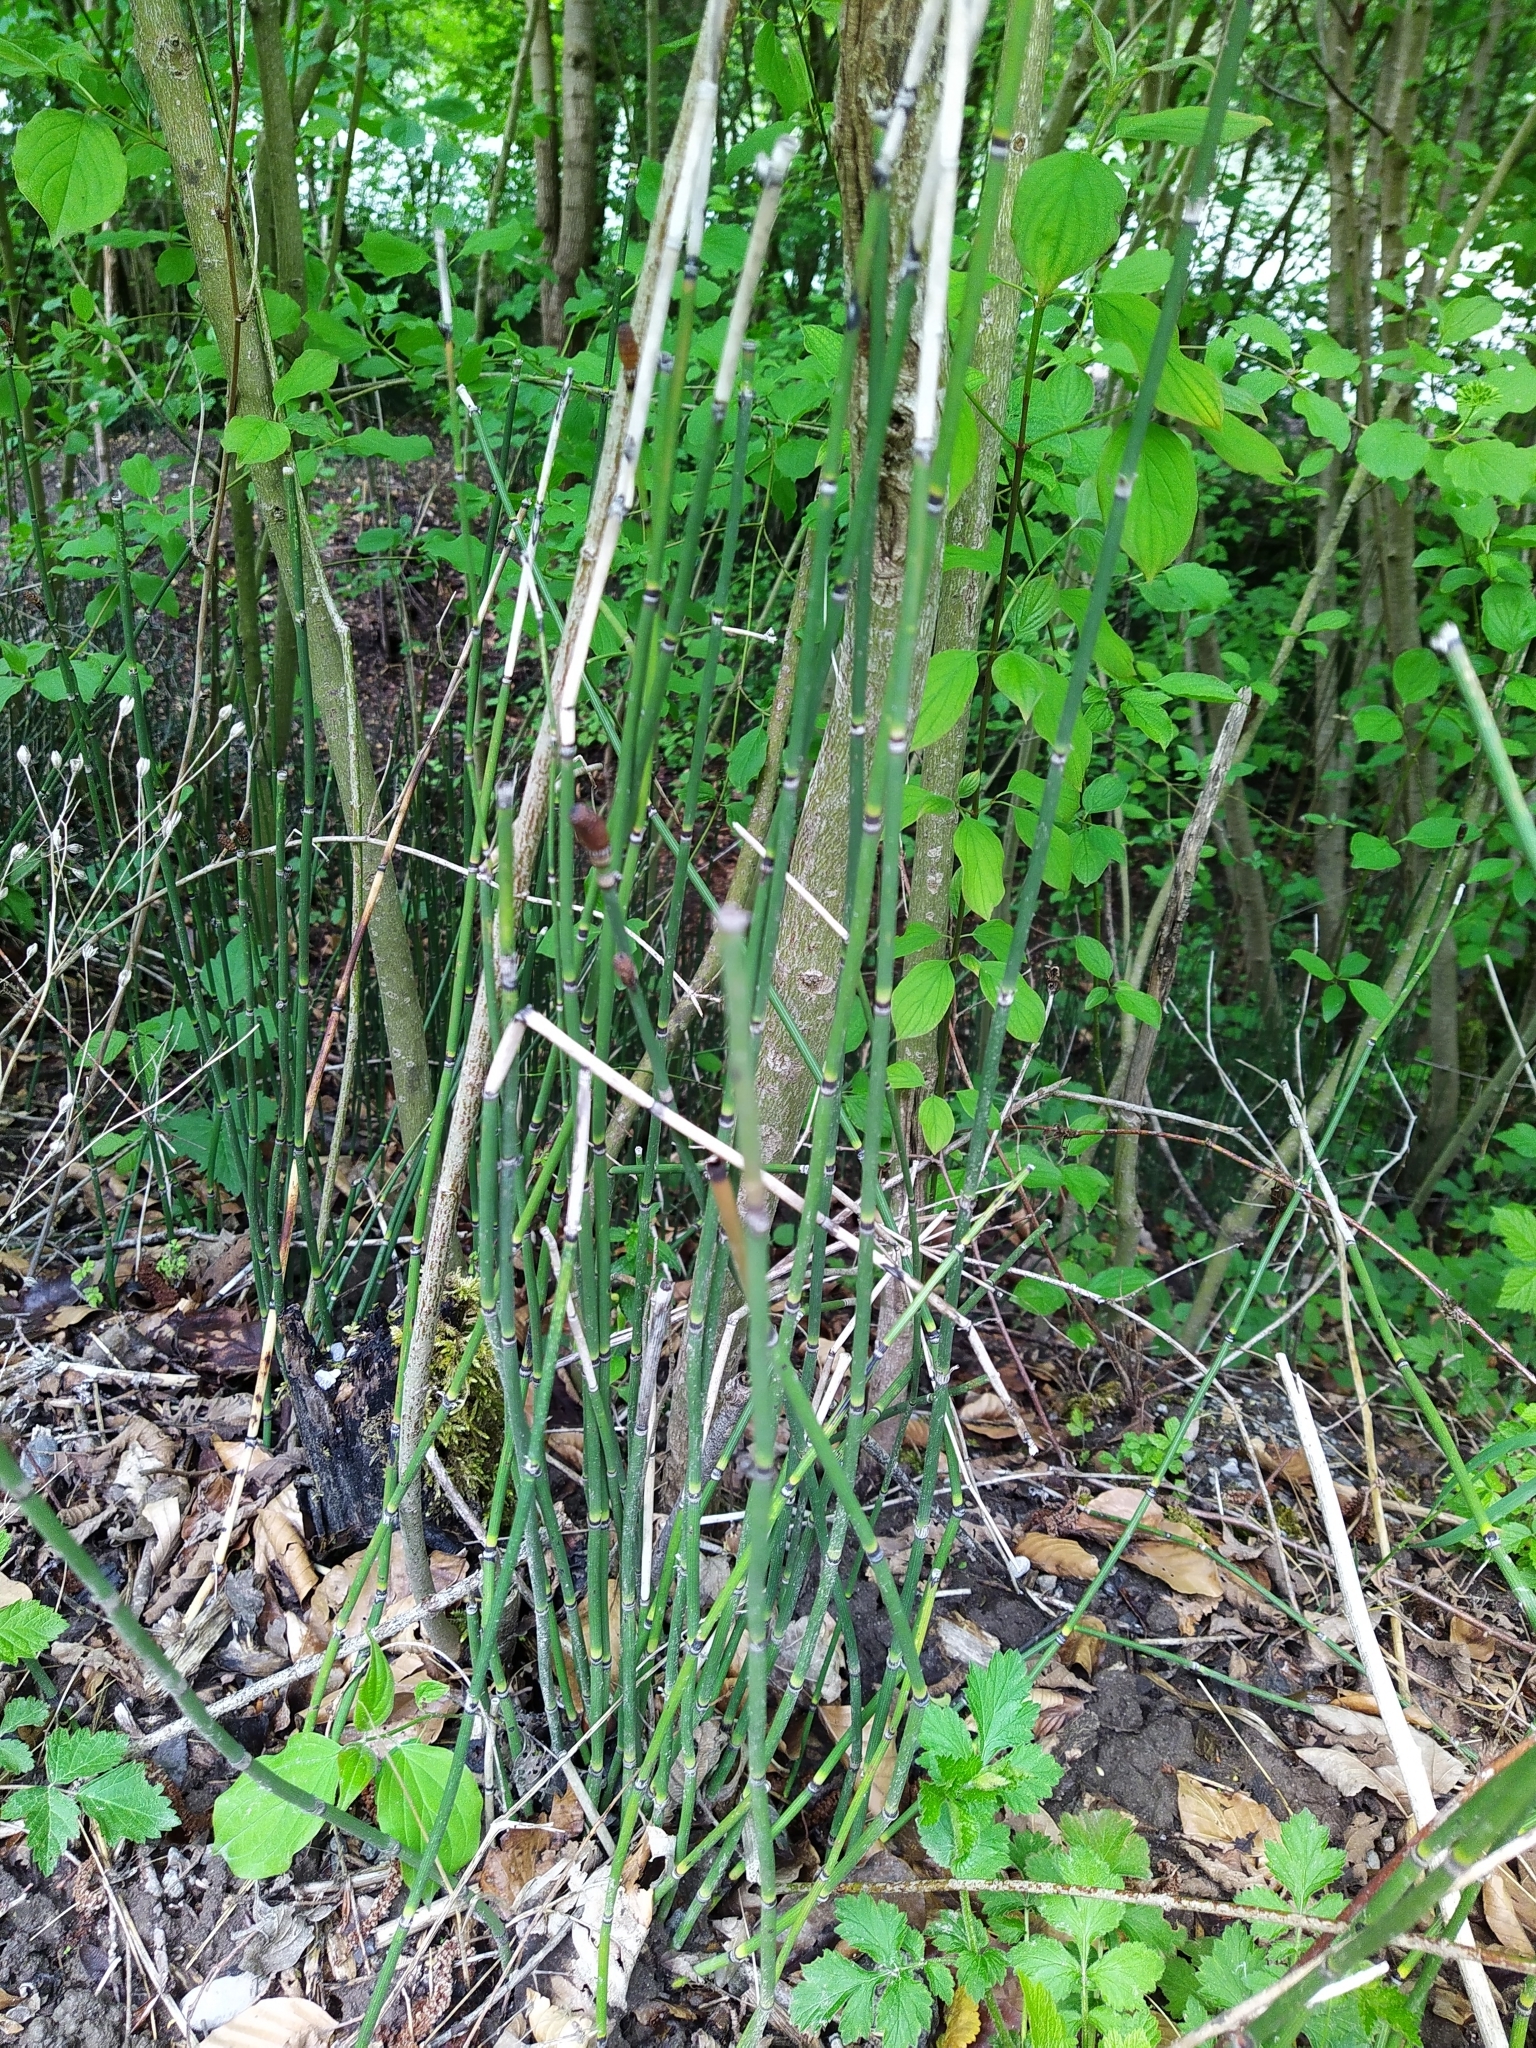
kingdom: Plantae
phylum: Tracheophyta
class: Polypodiopsida
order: Equisetales
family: Equisetaceae
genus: Equisetum
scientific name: Equisetum hyemale
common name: Rough horsetail
